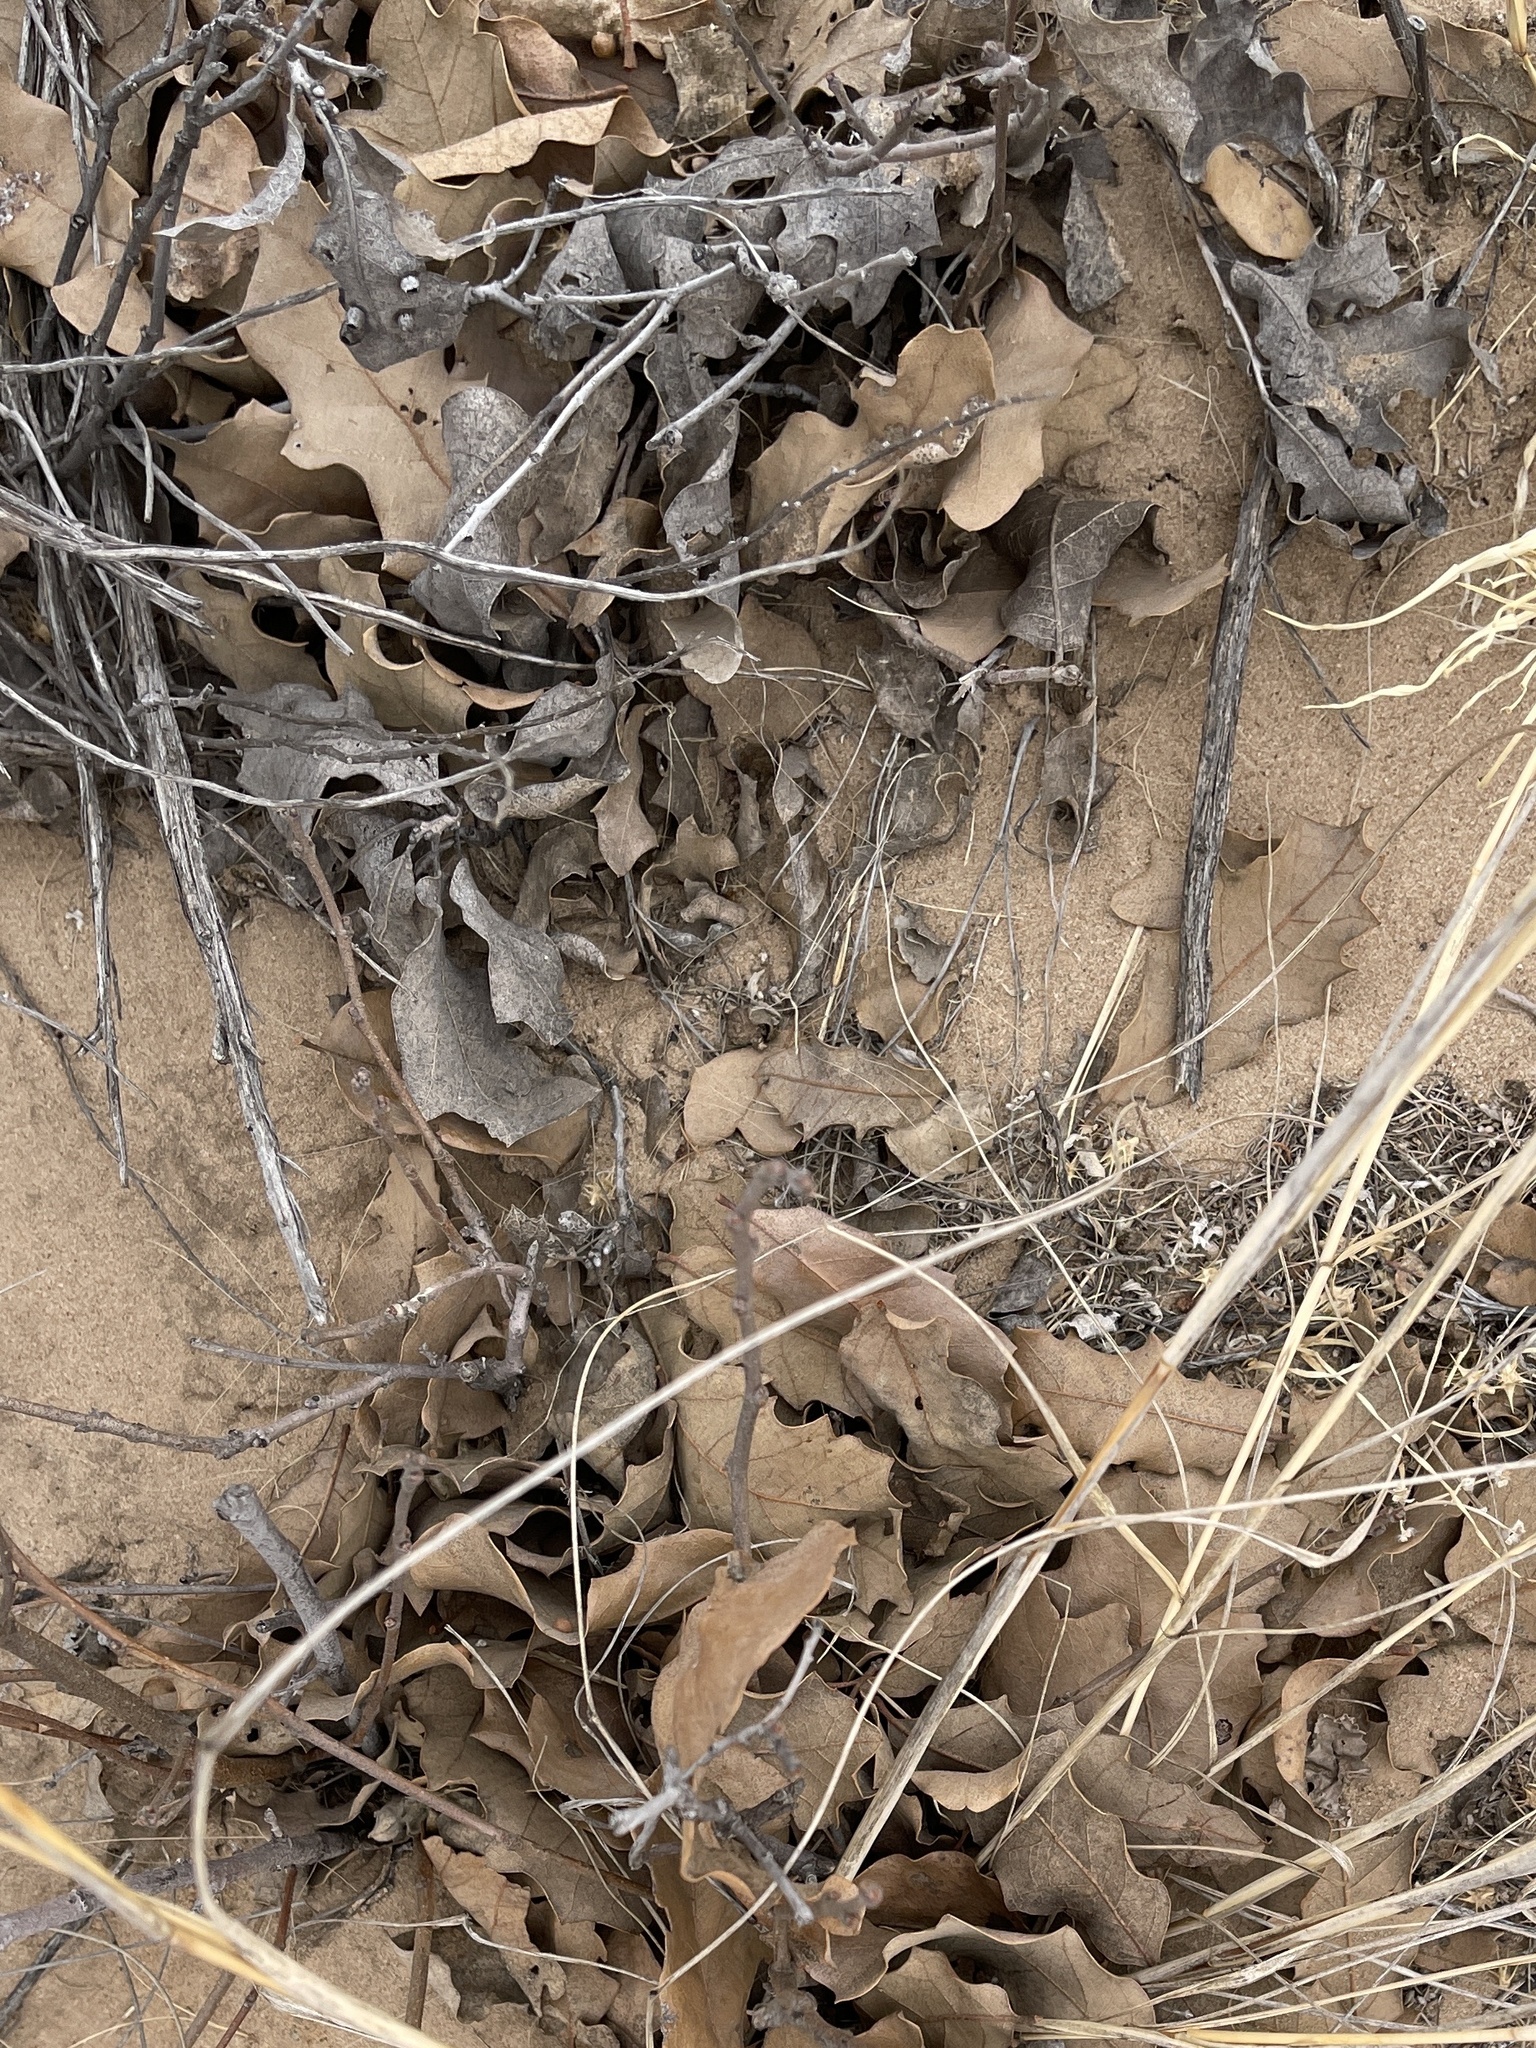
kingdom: Plantae
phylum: Tracheophyta
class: Magnoliopsida
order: Fagales
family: Fagaceae
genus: Quercus
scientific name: Quercus havardii
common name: Shinnery oak
